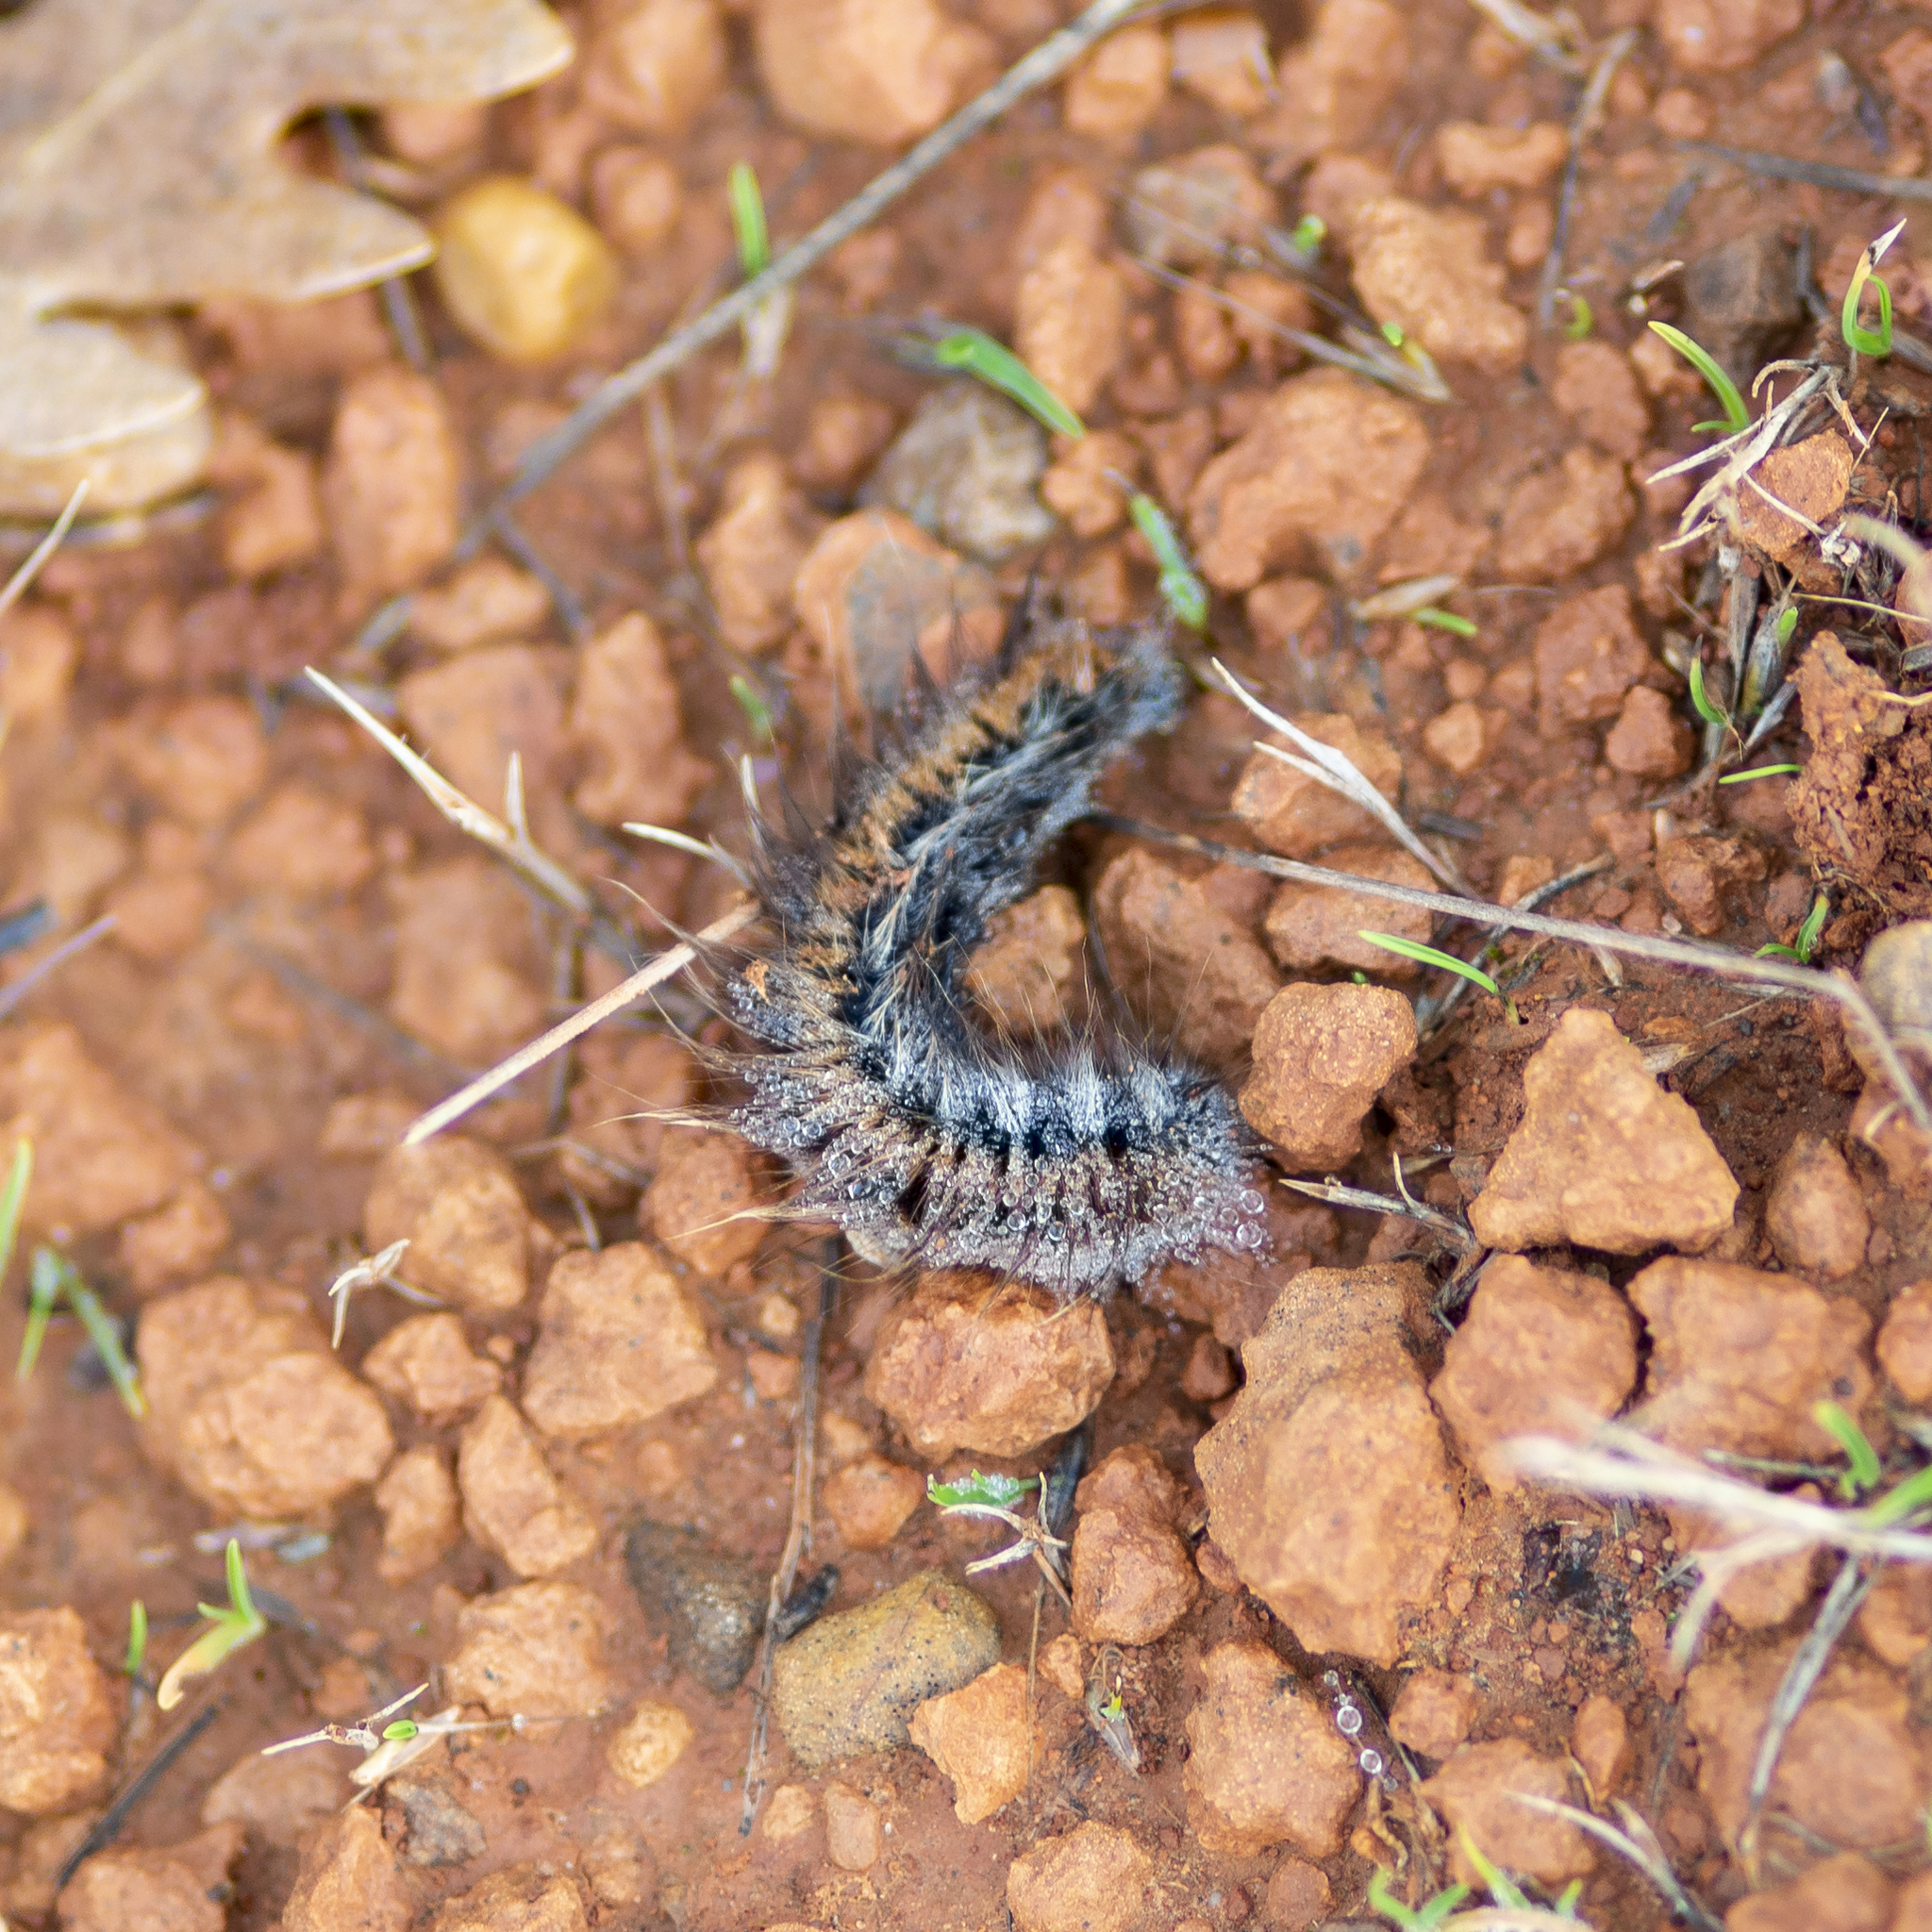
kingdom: Animalia
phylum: Arthropoda
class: Insecta
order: Lepidoptera
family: Lasiocampidae
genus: Macrothylacia
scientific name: Macrothylacia rubi
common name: Fox moth
